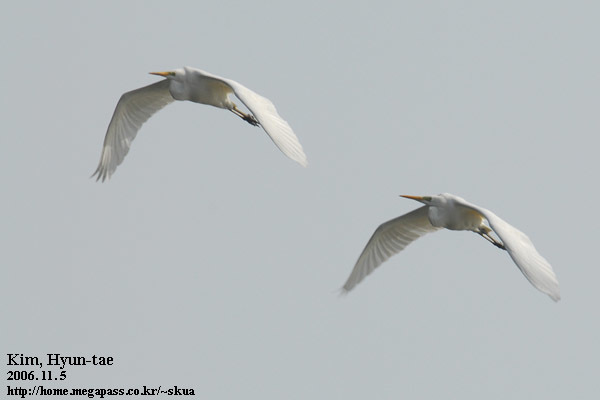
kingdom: Animalia
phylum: Chordata
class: Aves
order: Pelecaniformes
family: Ardeidae
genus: Ardea
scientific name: Ardea alba
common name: Great egret
